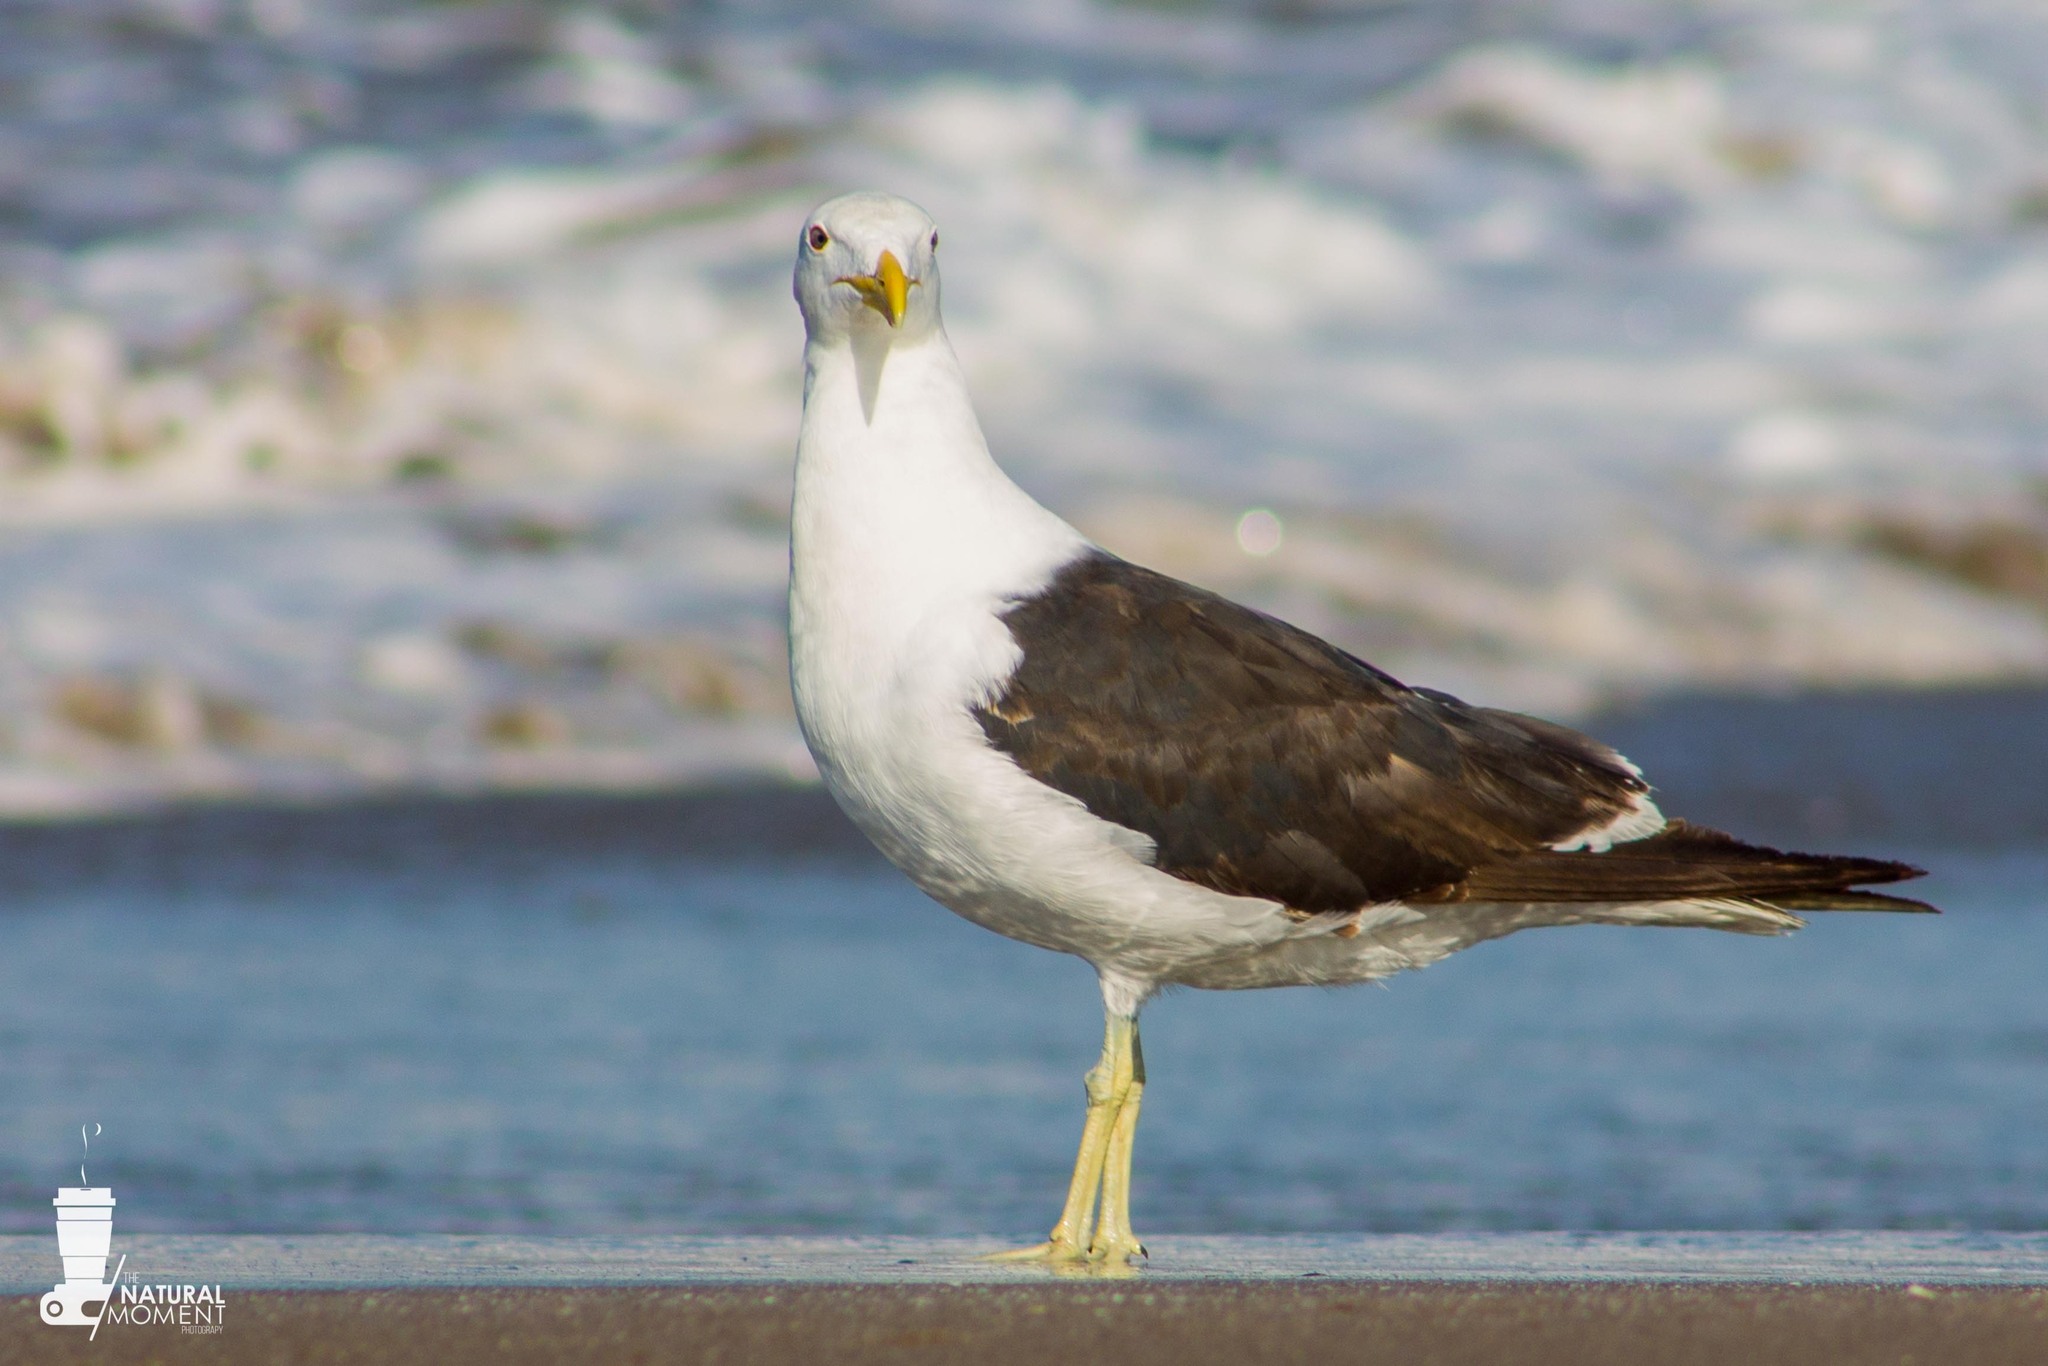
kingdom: Animalia
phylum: Chordata
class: Aves
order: Charadriiformes
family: Laridae
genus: Larus
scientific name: Larus dominicanus
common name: Kelp gull
